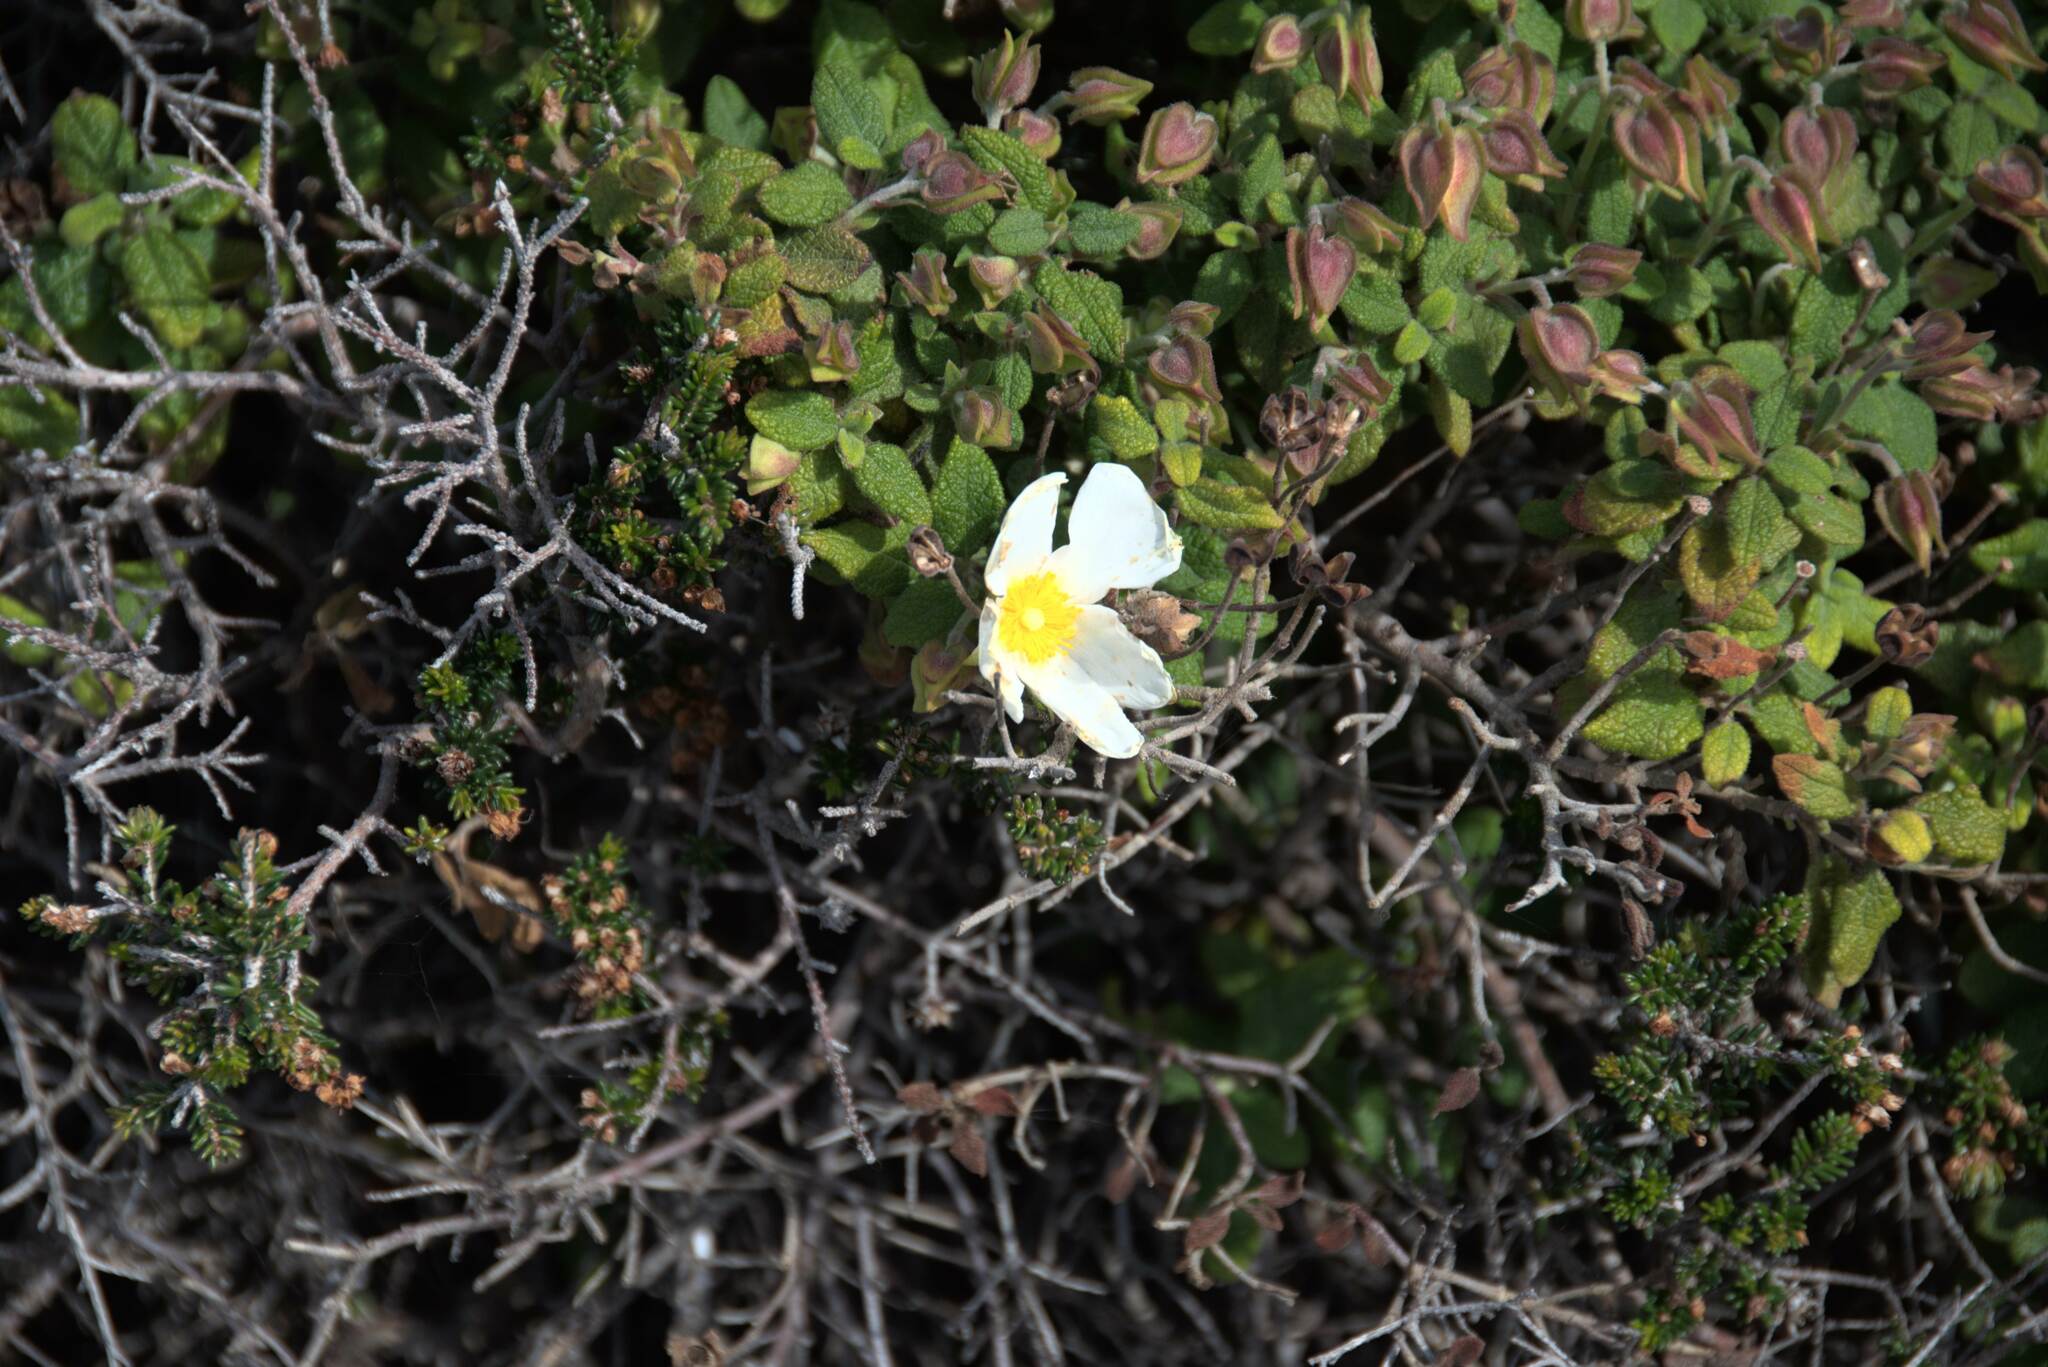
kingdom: Plantae
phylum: Tracheophyta
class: Magnoliopsida
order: Malvales
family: Cistaceae
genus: Cistus
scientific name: Cistus salviifolius
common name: Salvia cistus
